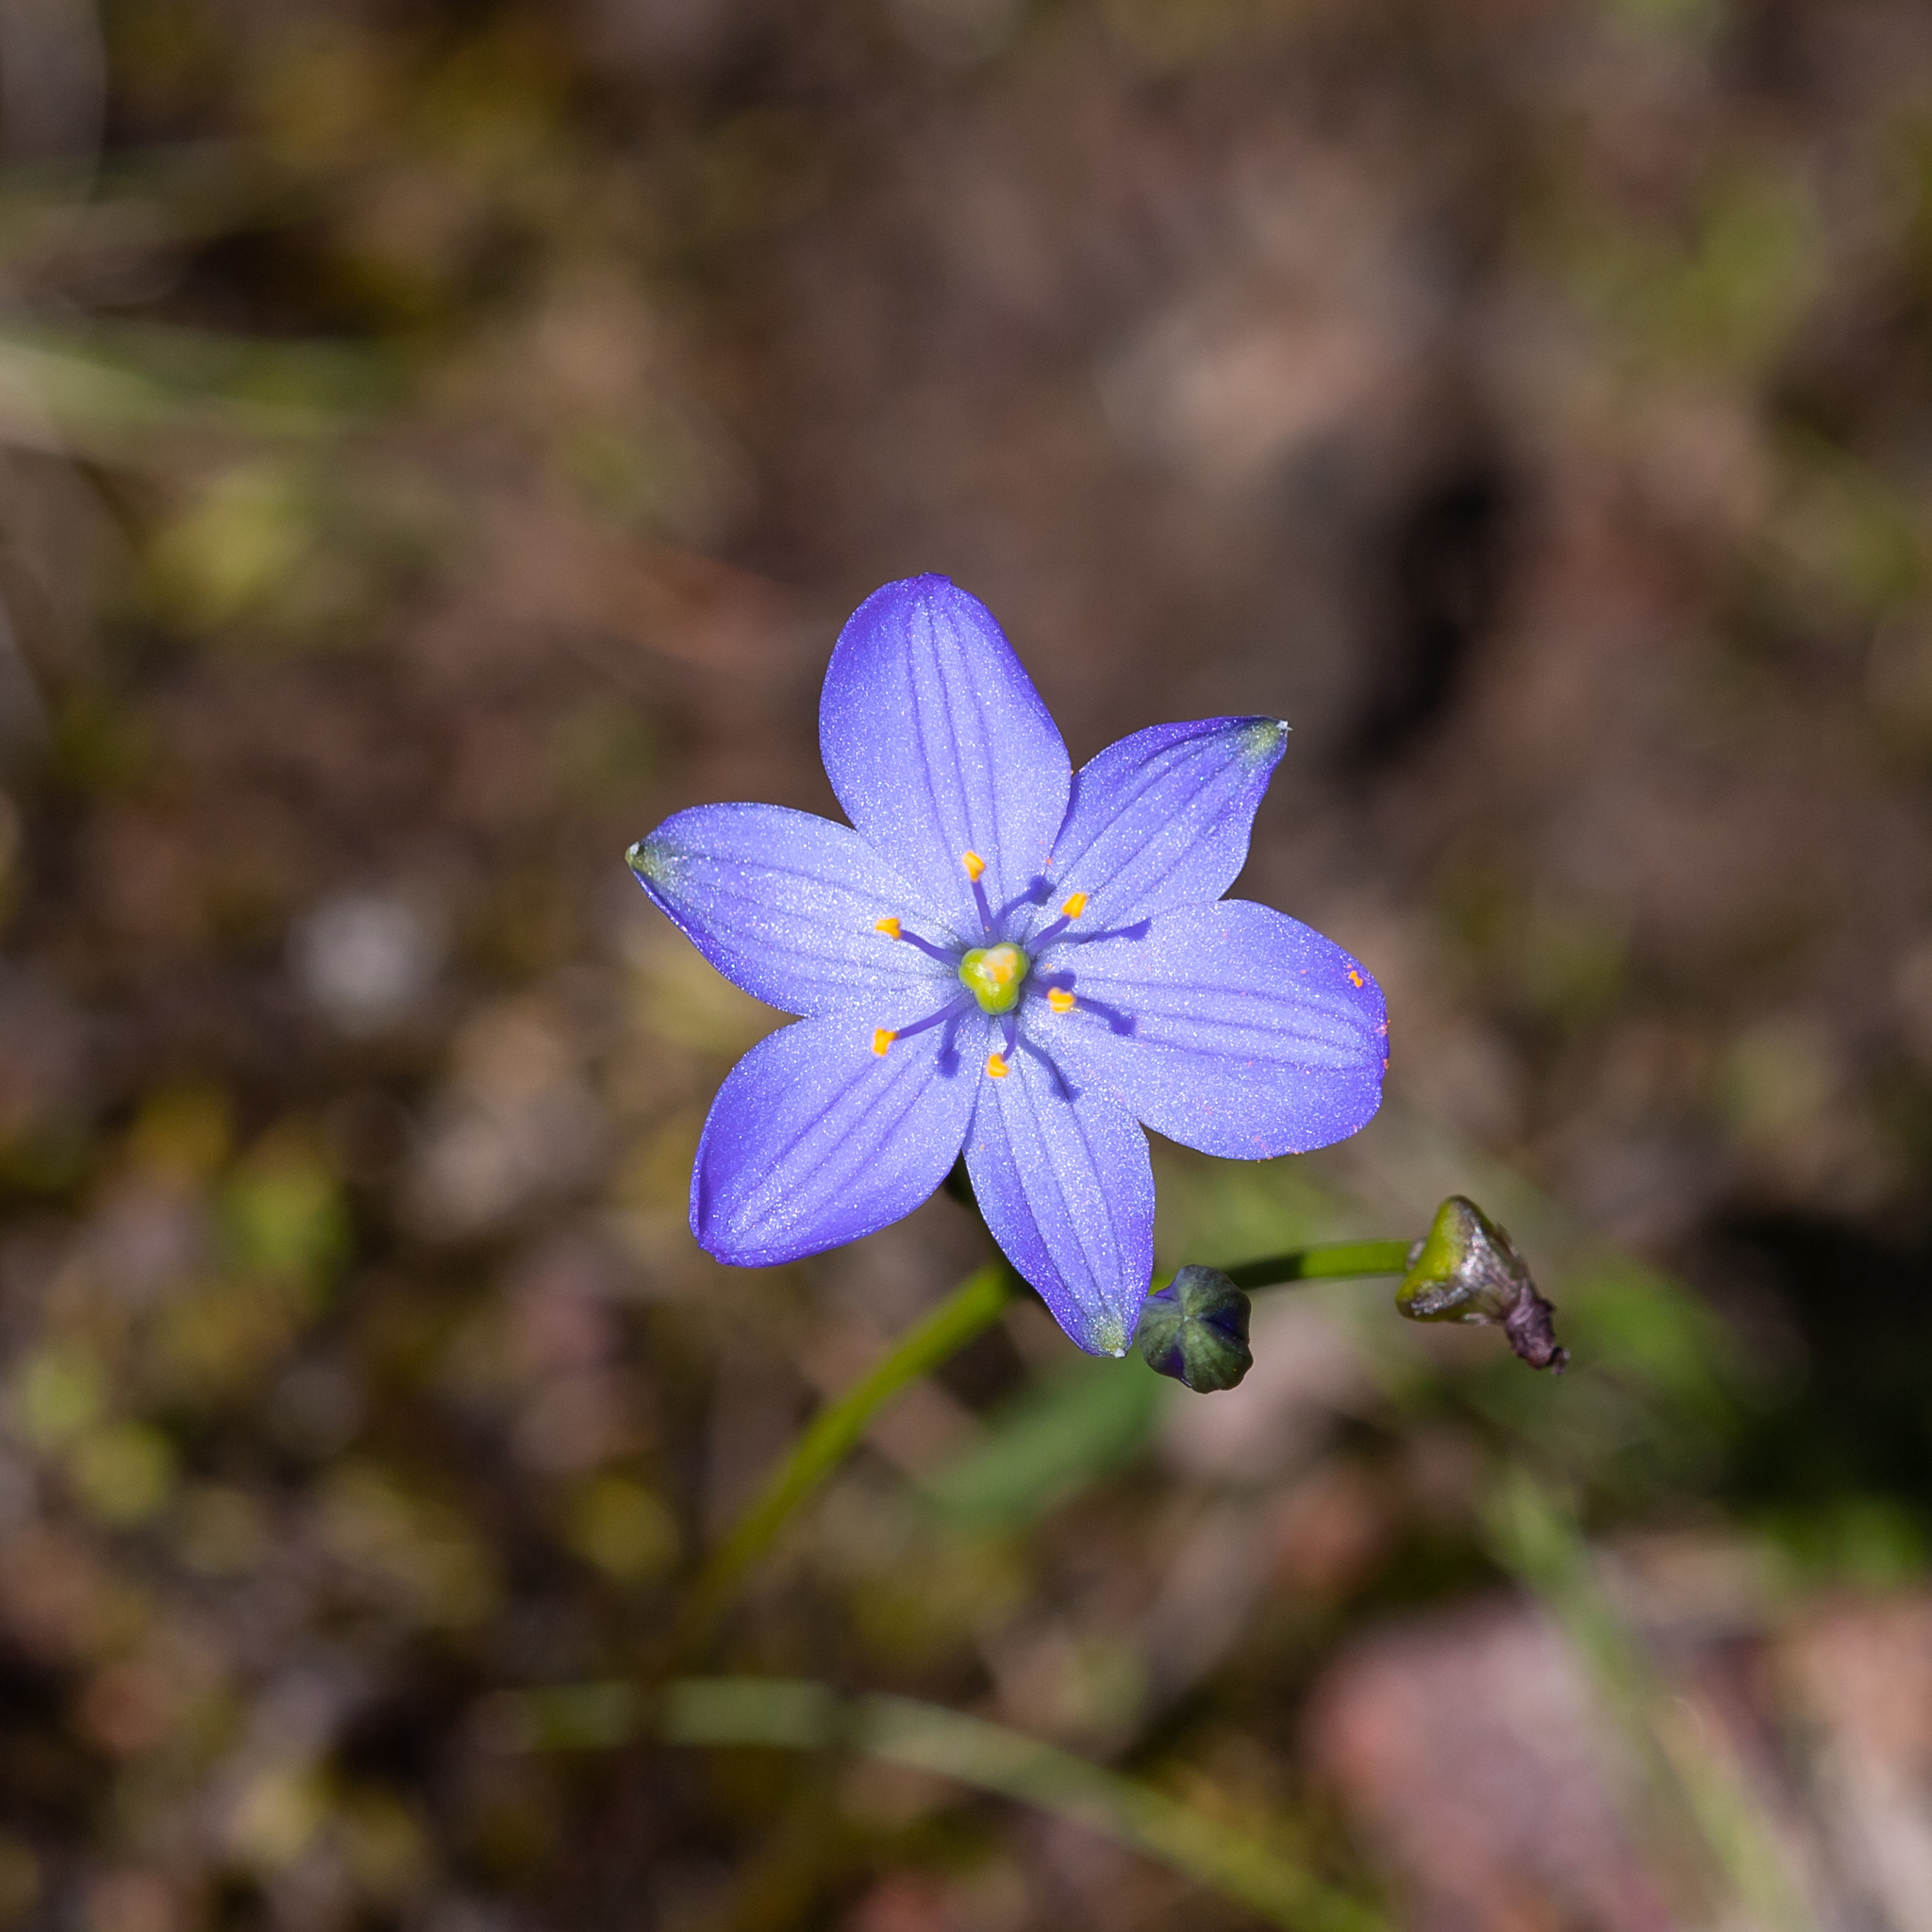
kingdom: Plantae
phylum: Tracheophyta
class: Liliopsida
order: Asparagales
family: Asphodelaceae
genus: Chamaescilla
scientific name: Chamaescilla corymbosa
